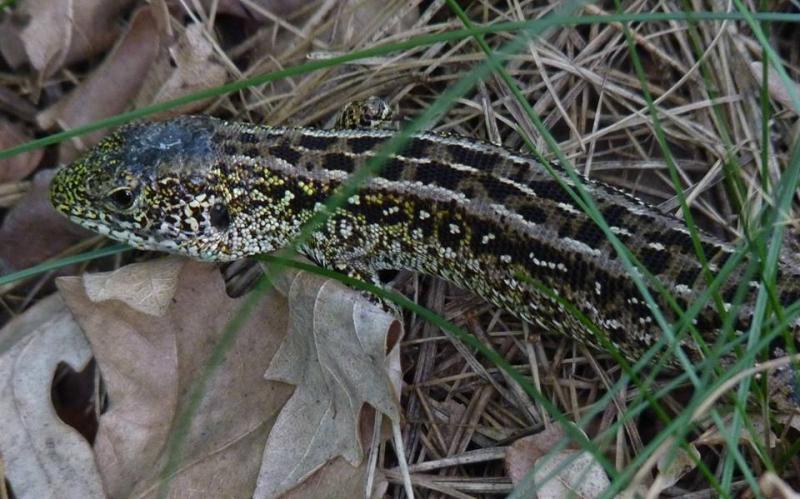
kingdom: Animalia
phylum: Chordata
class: Squamata
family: Lacertidae
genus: Lacerta
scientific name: Lacerta agilis
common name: Sand lizard
